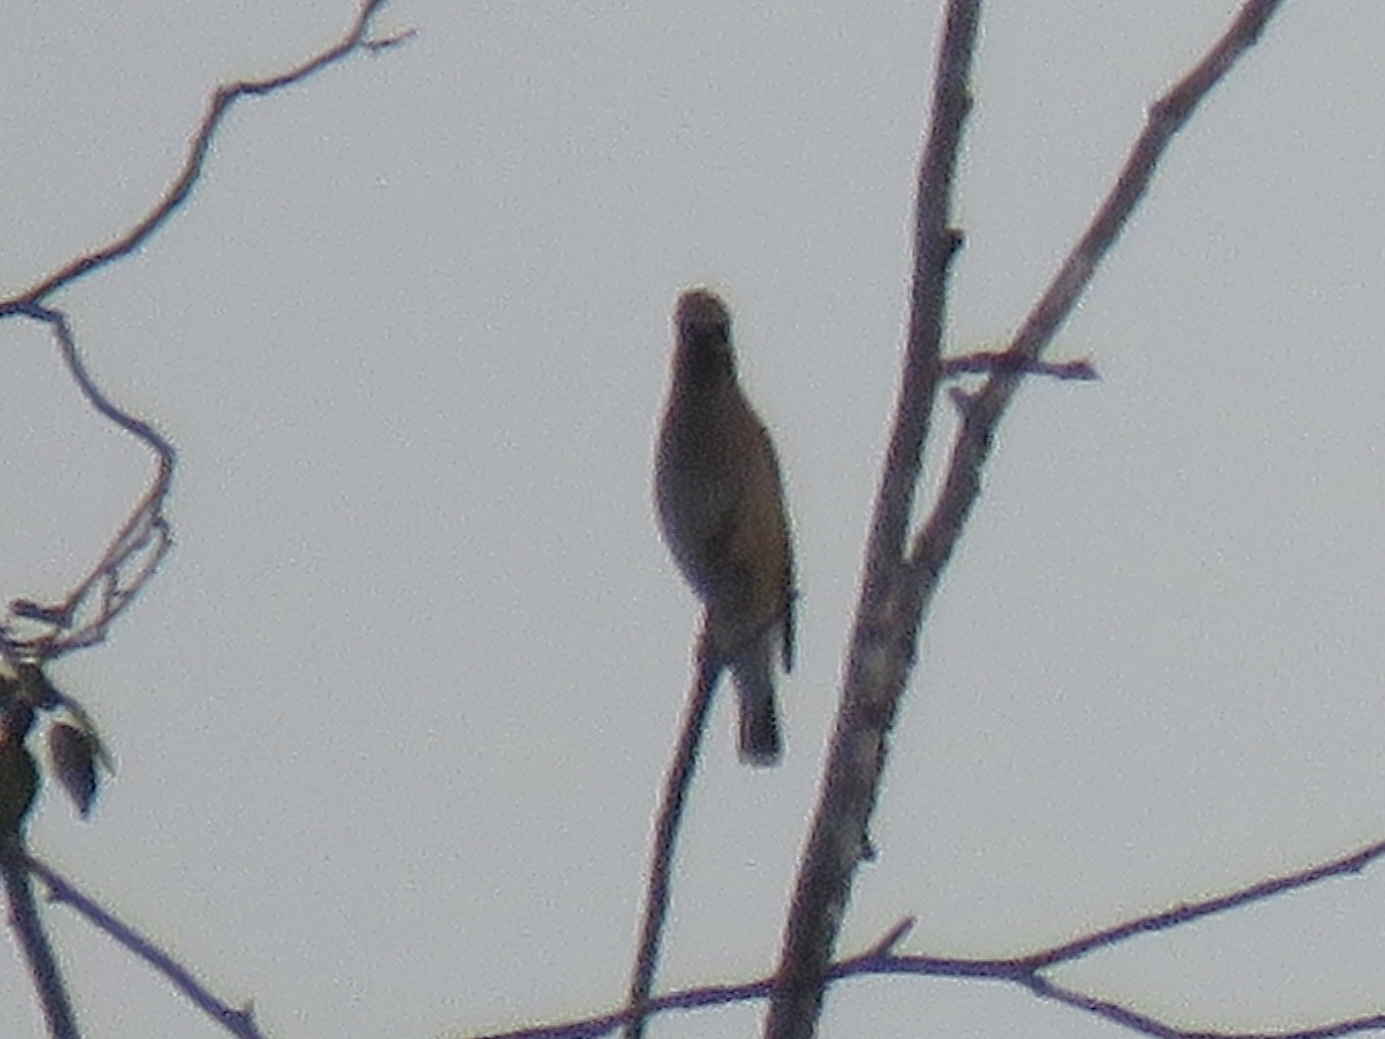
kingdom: Animalia
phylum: Chordata
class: Aves
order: Passeriformes
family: Bombycillidae
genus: Bombycilla
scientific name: Bombycilla cedrorum
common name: Cedar waxwing
